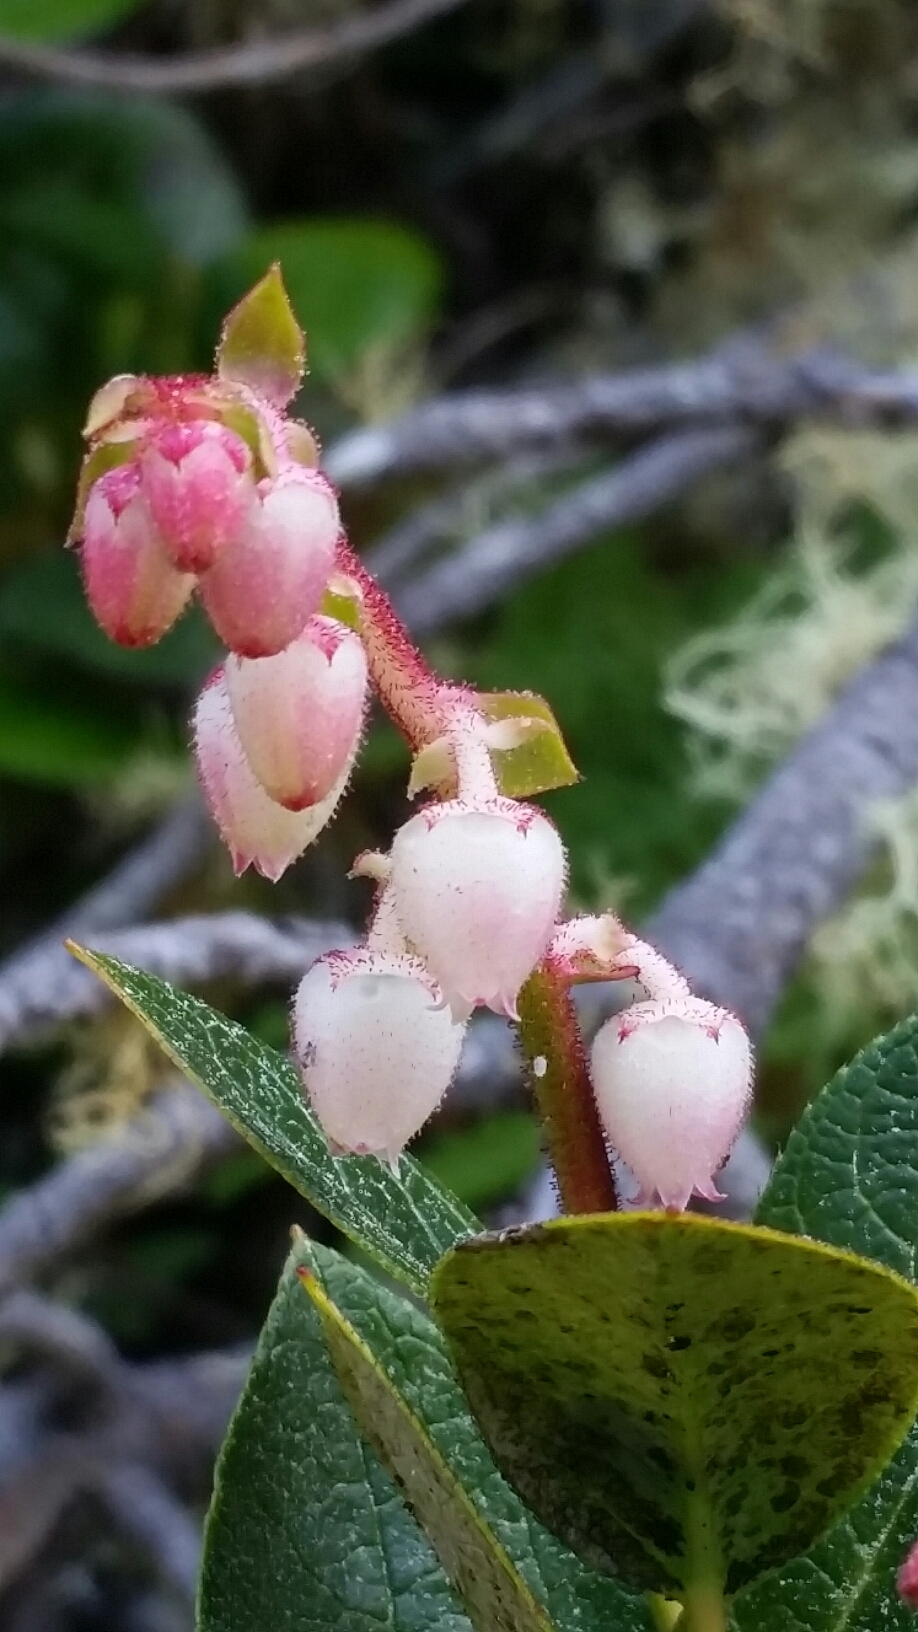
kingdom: Plantae
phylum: Tracheophyta
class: Magnoliopsida
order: Ericales
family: Ericaceae
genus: Gaultheria
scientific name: Gaultheria shallon
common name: Shallon
